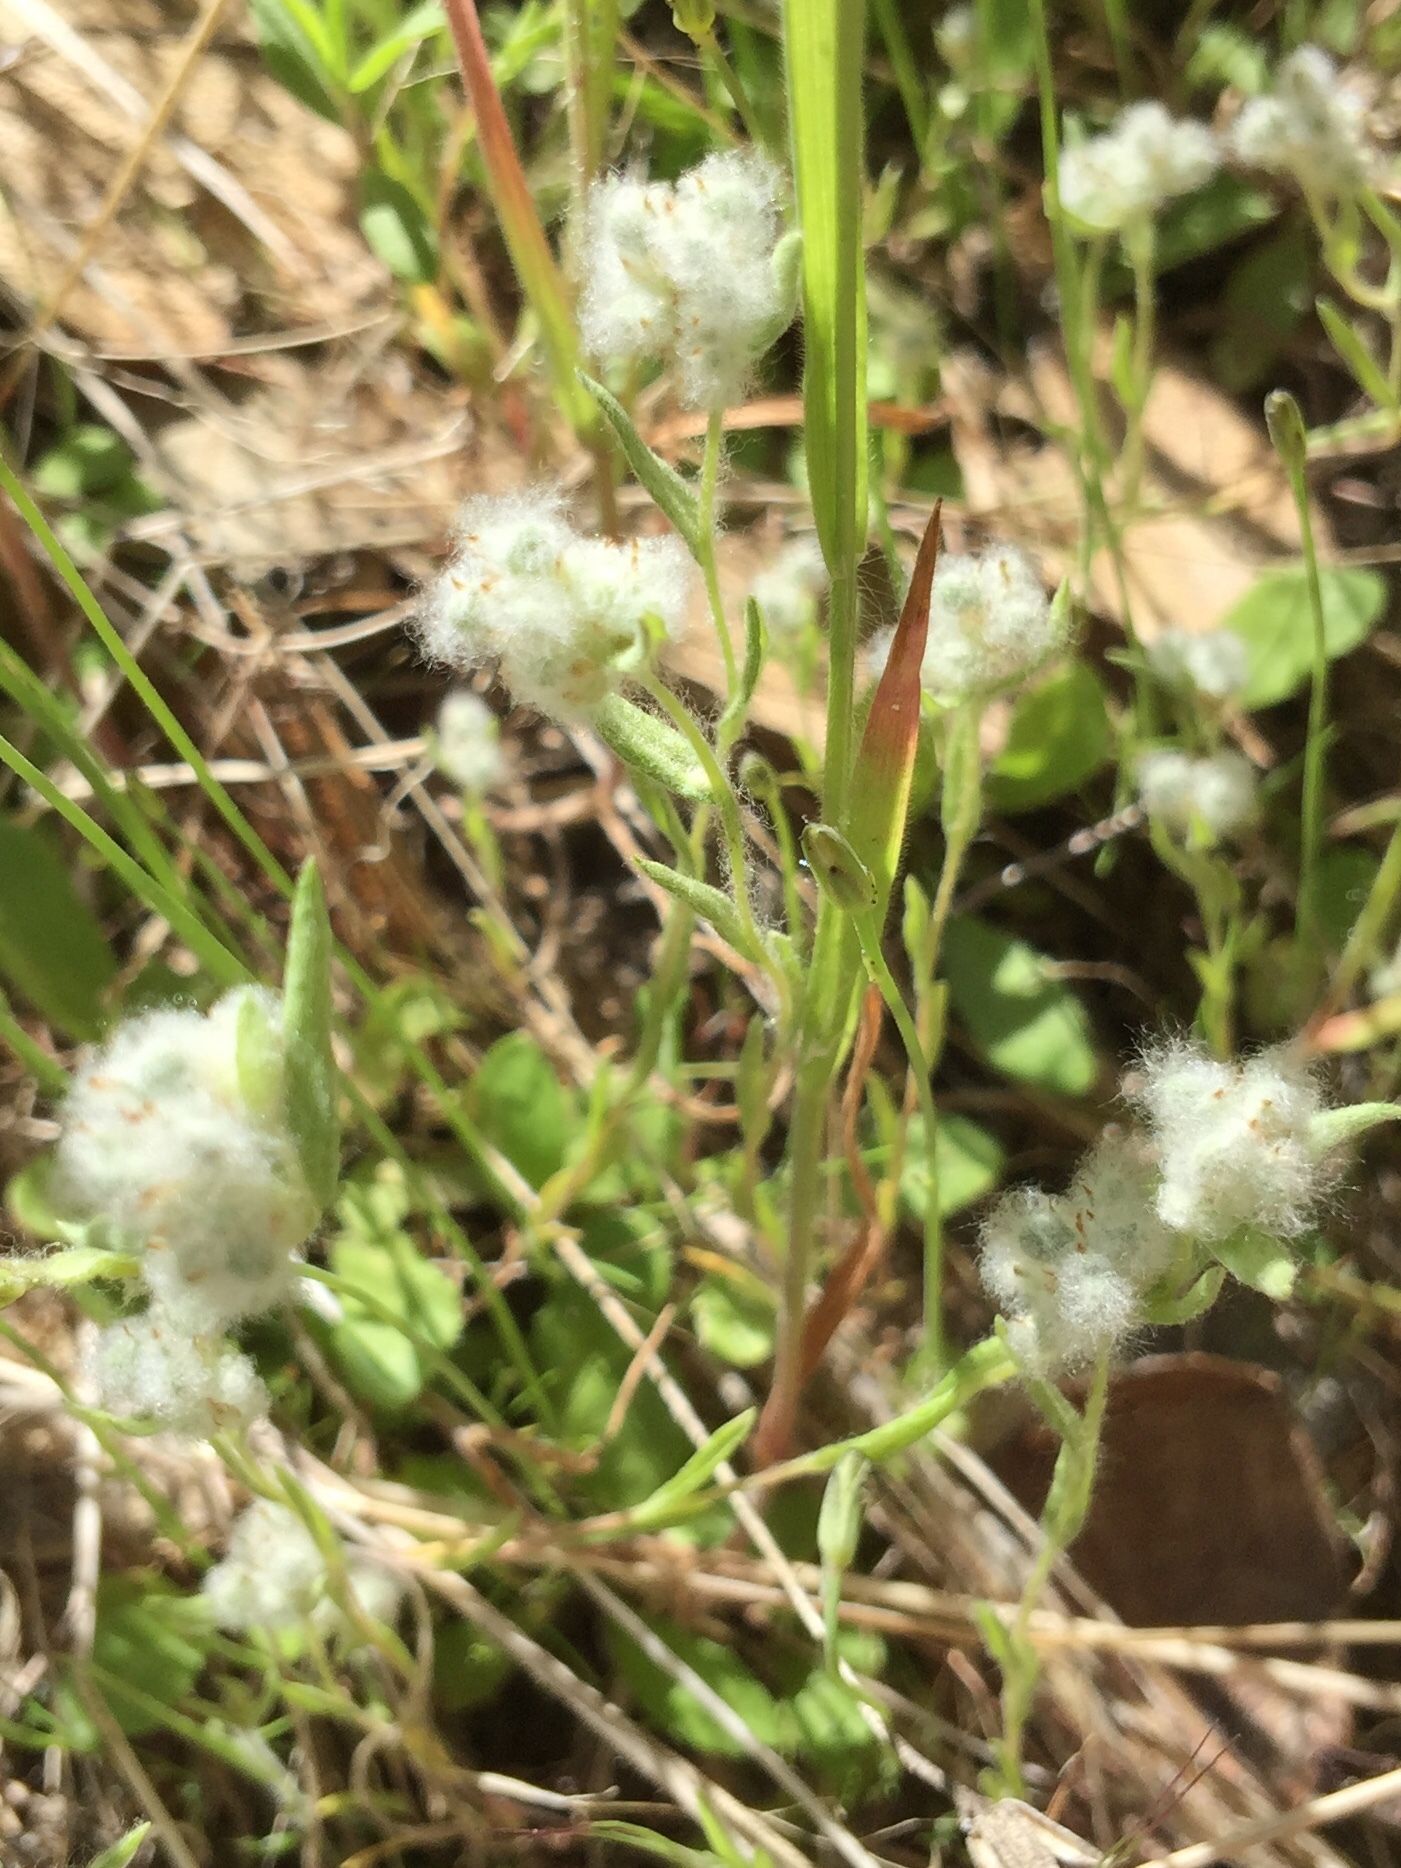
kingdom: Plantae
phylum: Tracheophyta
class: Magnoliopsida
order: Asterales
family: Asteraceae
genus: Bombycilaena
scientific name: Bombycilaena californica
